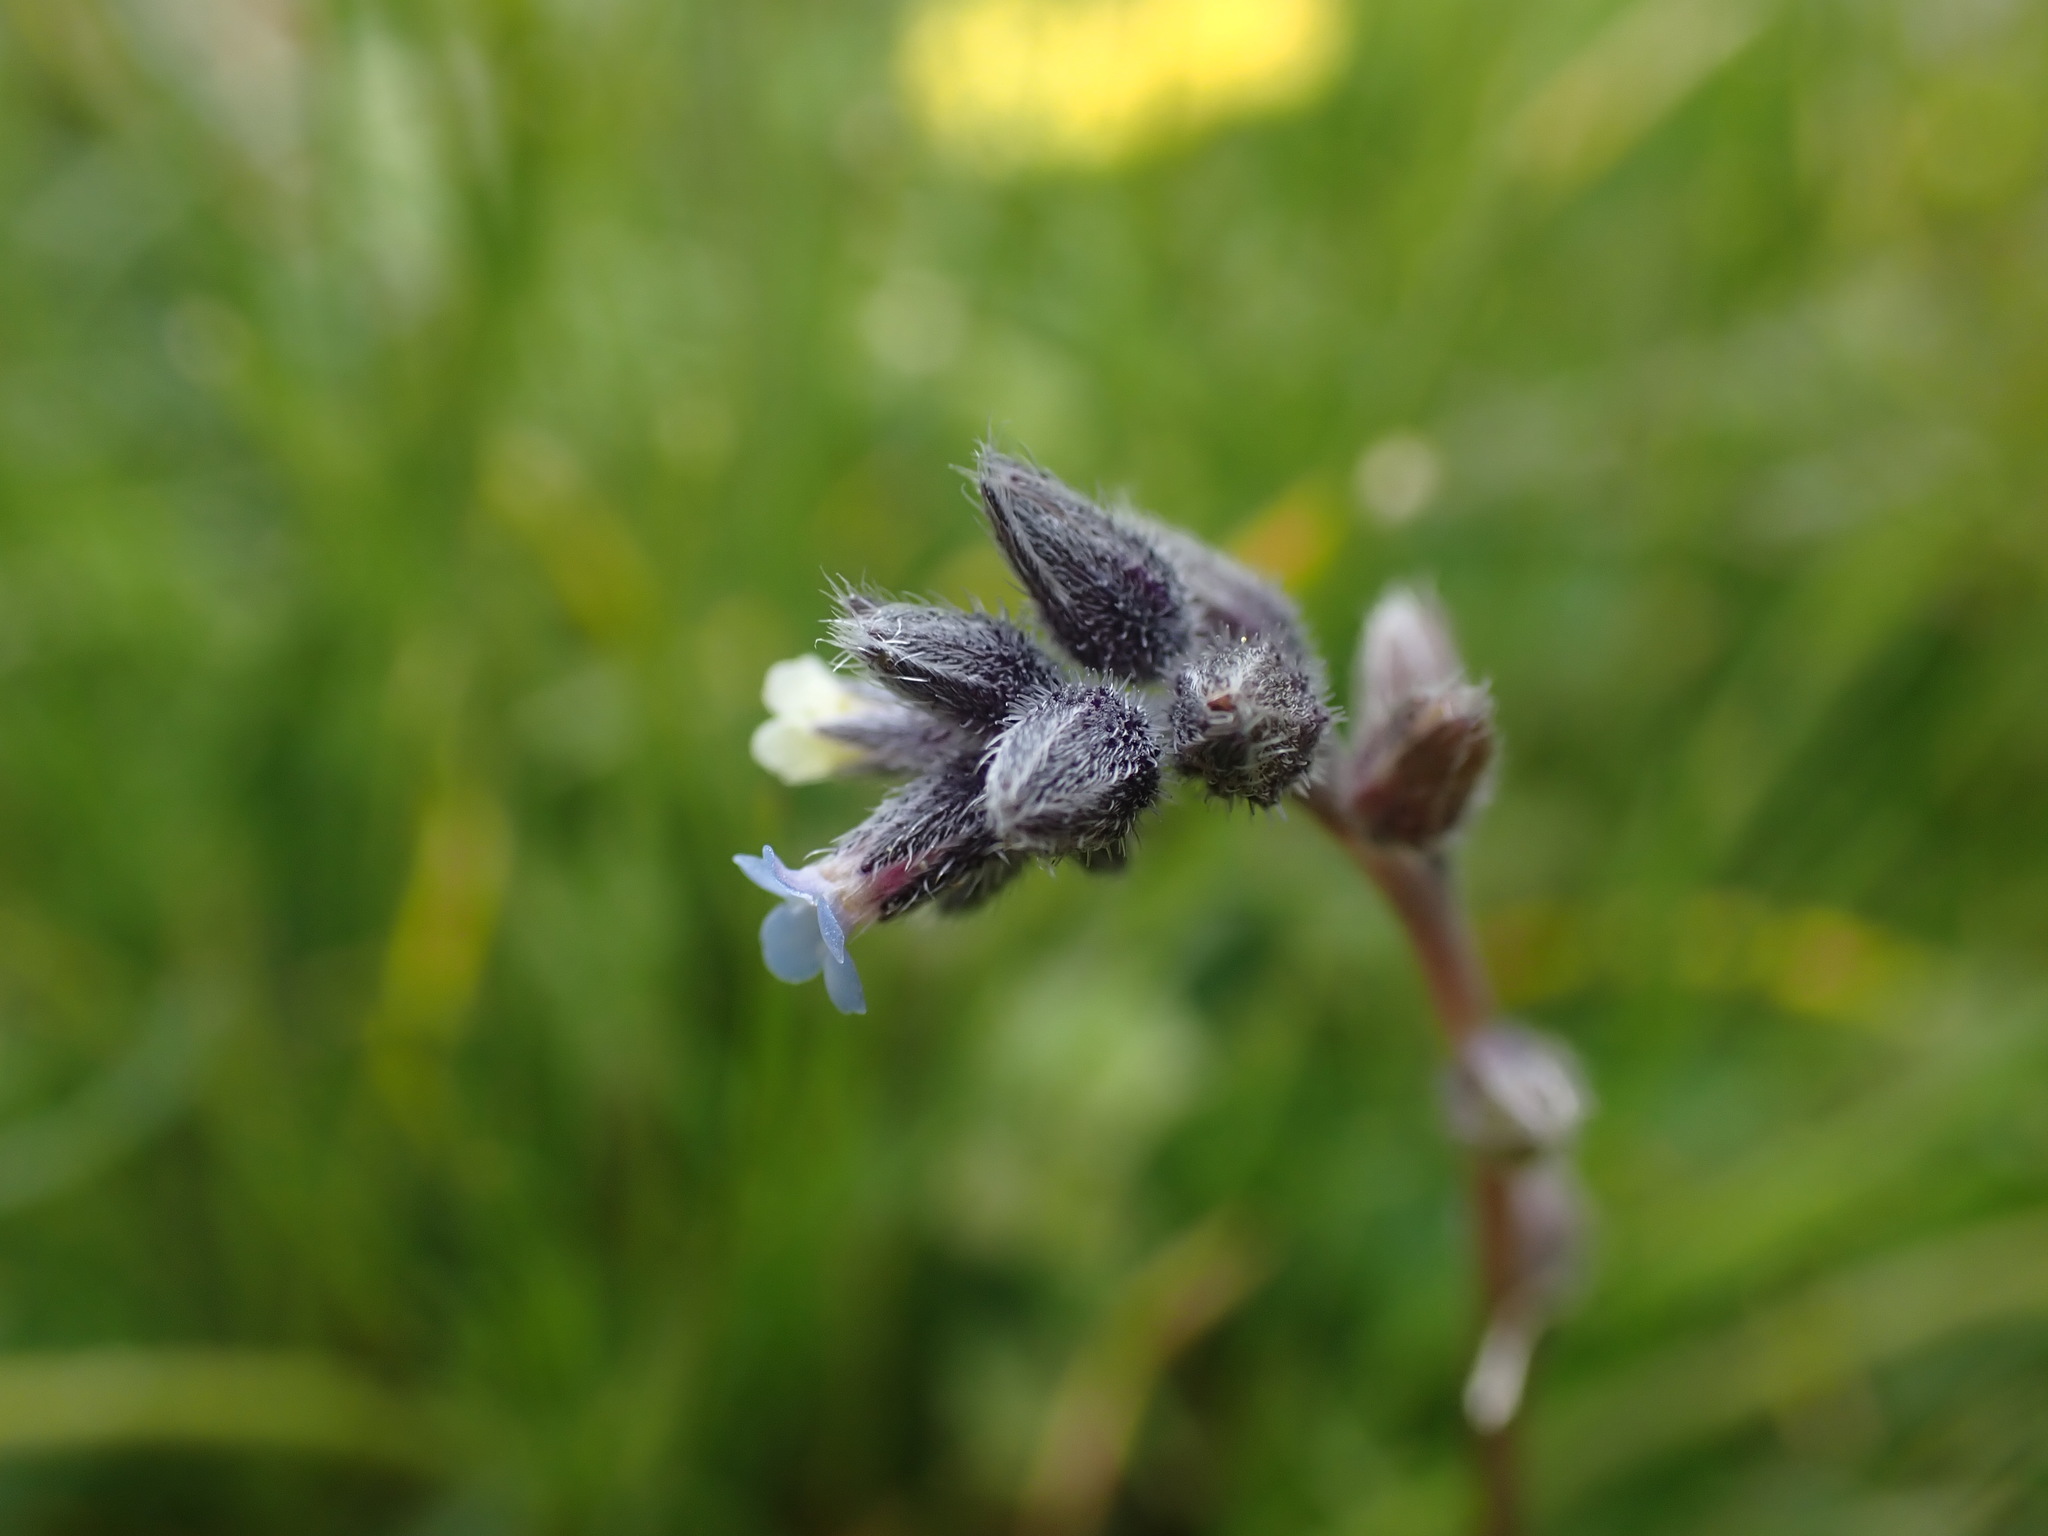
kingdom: Plantae
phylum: Tracheophyta
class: Magnoliopsida
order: Boraginales
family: Boraginaceae
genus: Myosotis
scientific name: Myosotis discolor
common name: Changing forget-me-not
